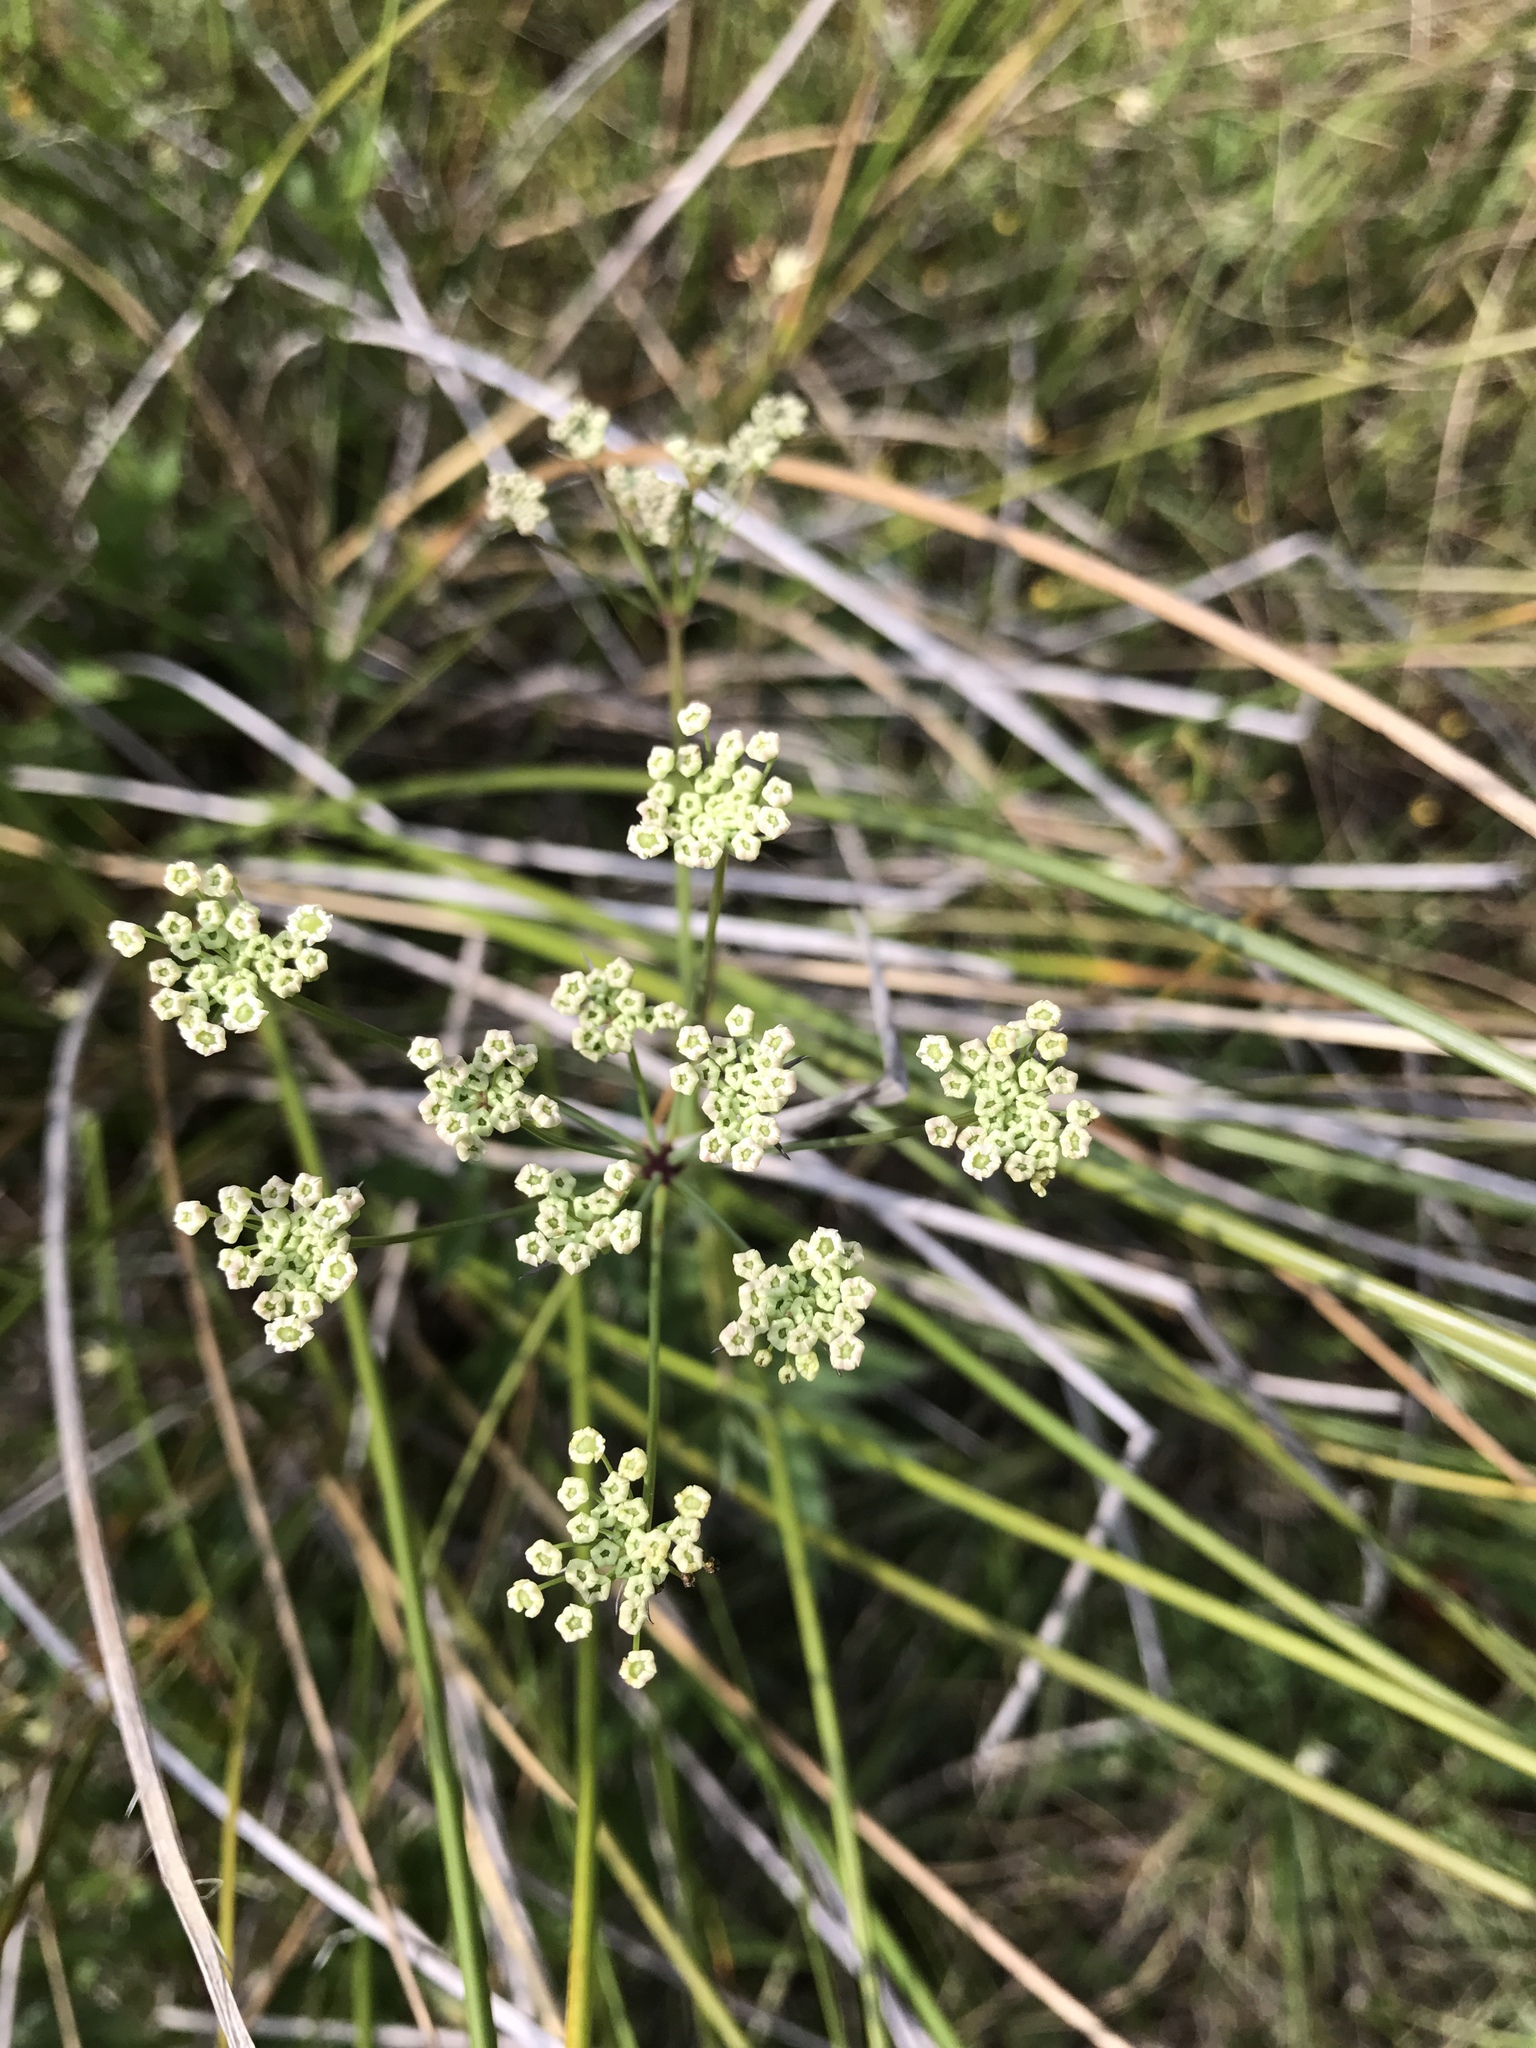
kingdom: Plantae
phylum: Tracheophyta
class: Magnoliopsida
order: Apiales
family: Apiaceae
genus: Oxypolis
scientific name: Oxypolis rigidior
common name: Cowbane
